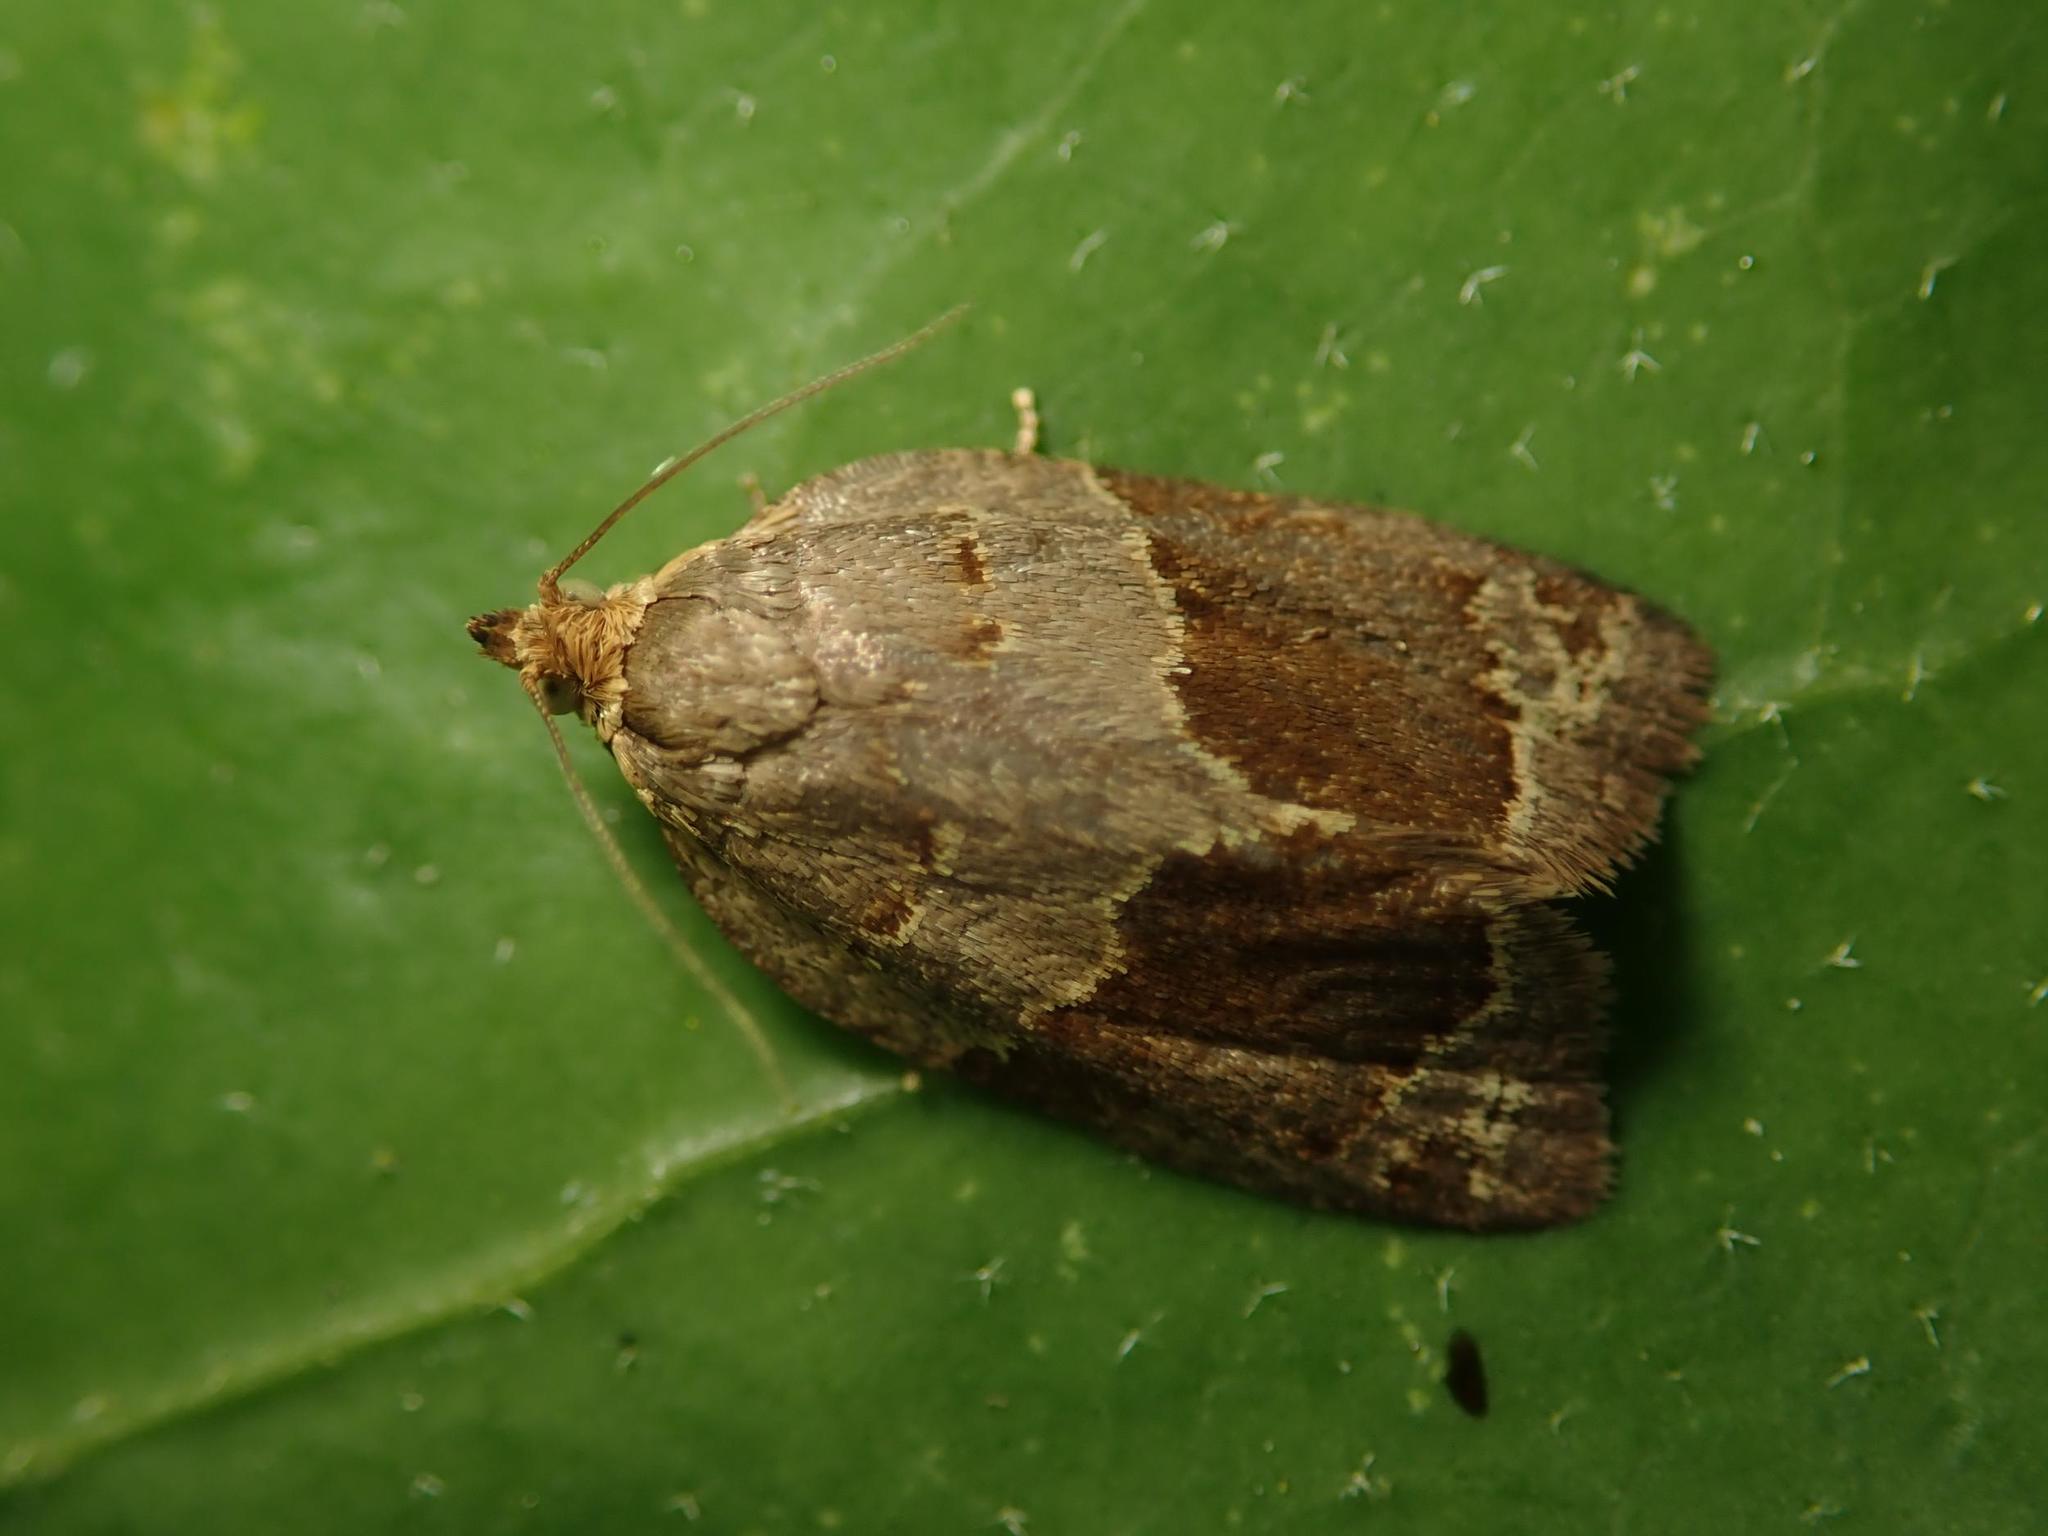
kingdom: Animalia
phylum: Arthropoda
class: Insecta
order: Lepidoptera
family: Tortricidae
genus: Clepsis
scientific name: Clepsis dumicolana
